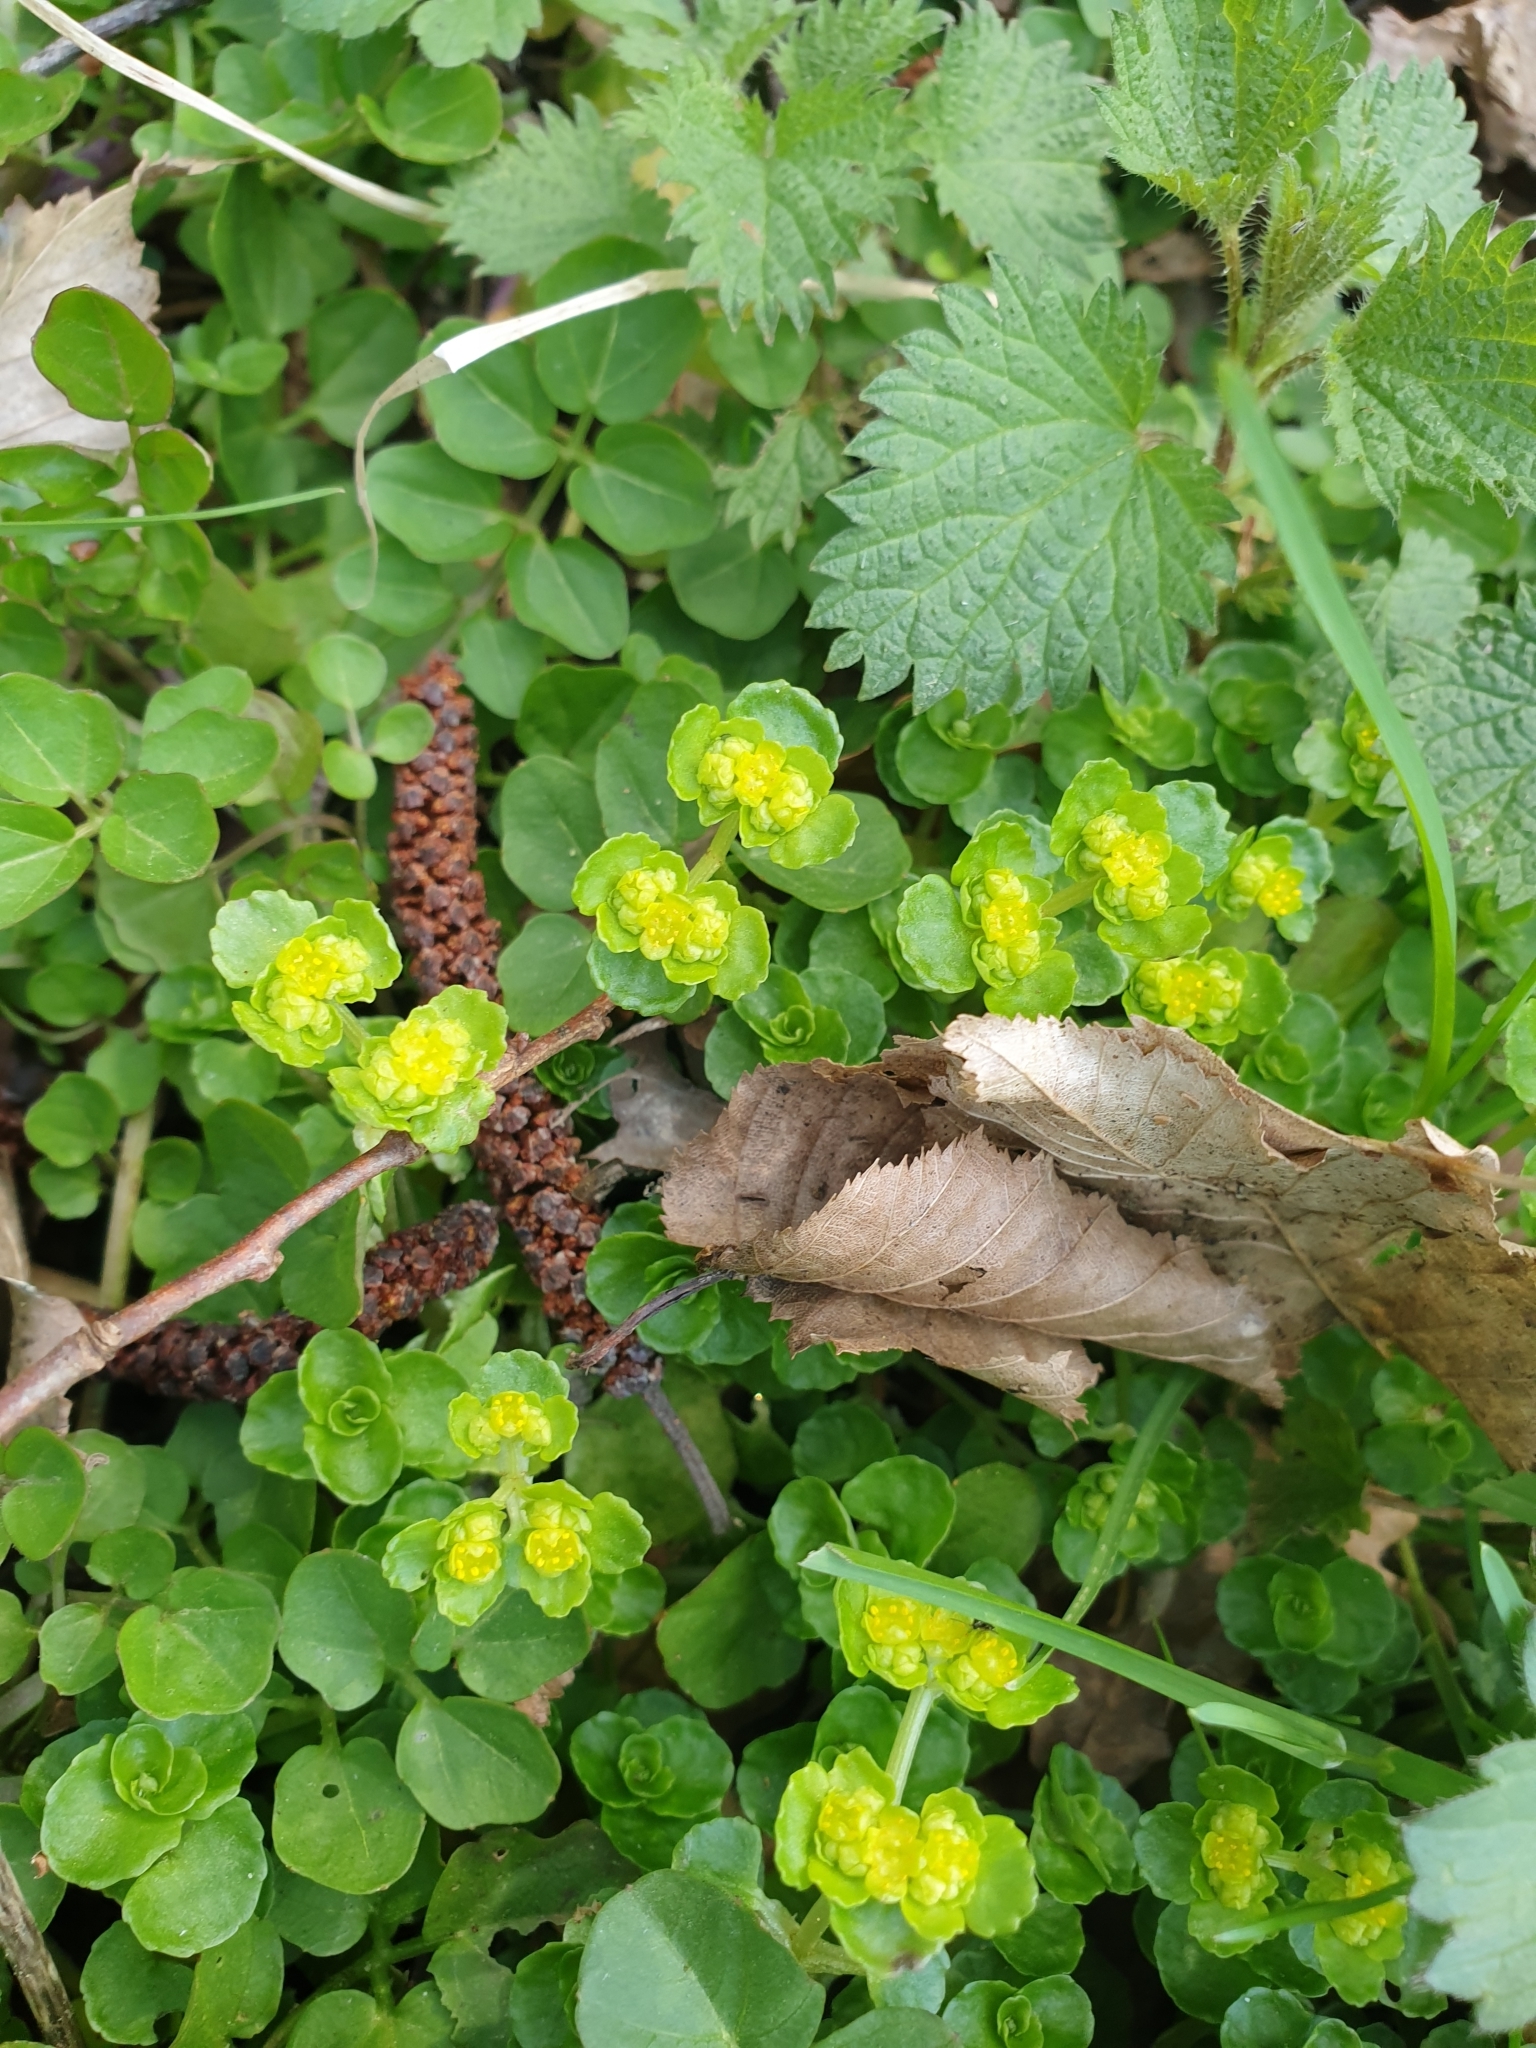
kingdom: Plantae
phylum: Tracheophyta
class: Magnoliopsida
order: Saxifragales
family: Saxifragaceae
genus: Chrysosplenium
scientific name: Chrysosplenium oppositifolium
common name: Opposite-leaved golden-saxifrage
